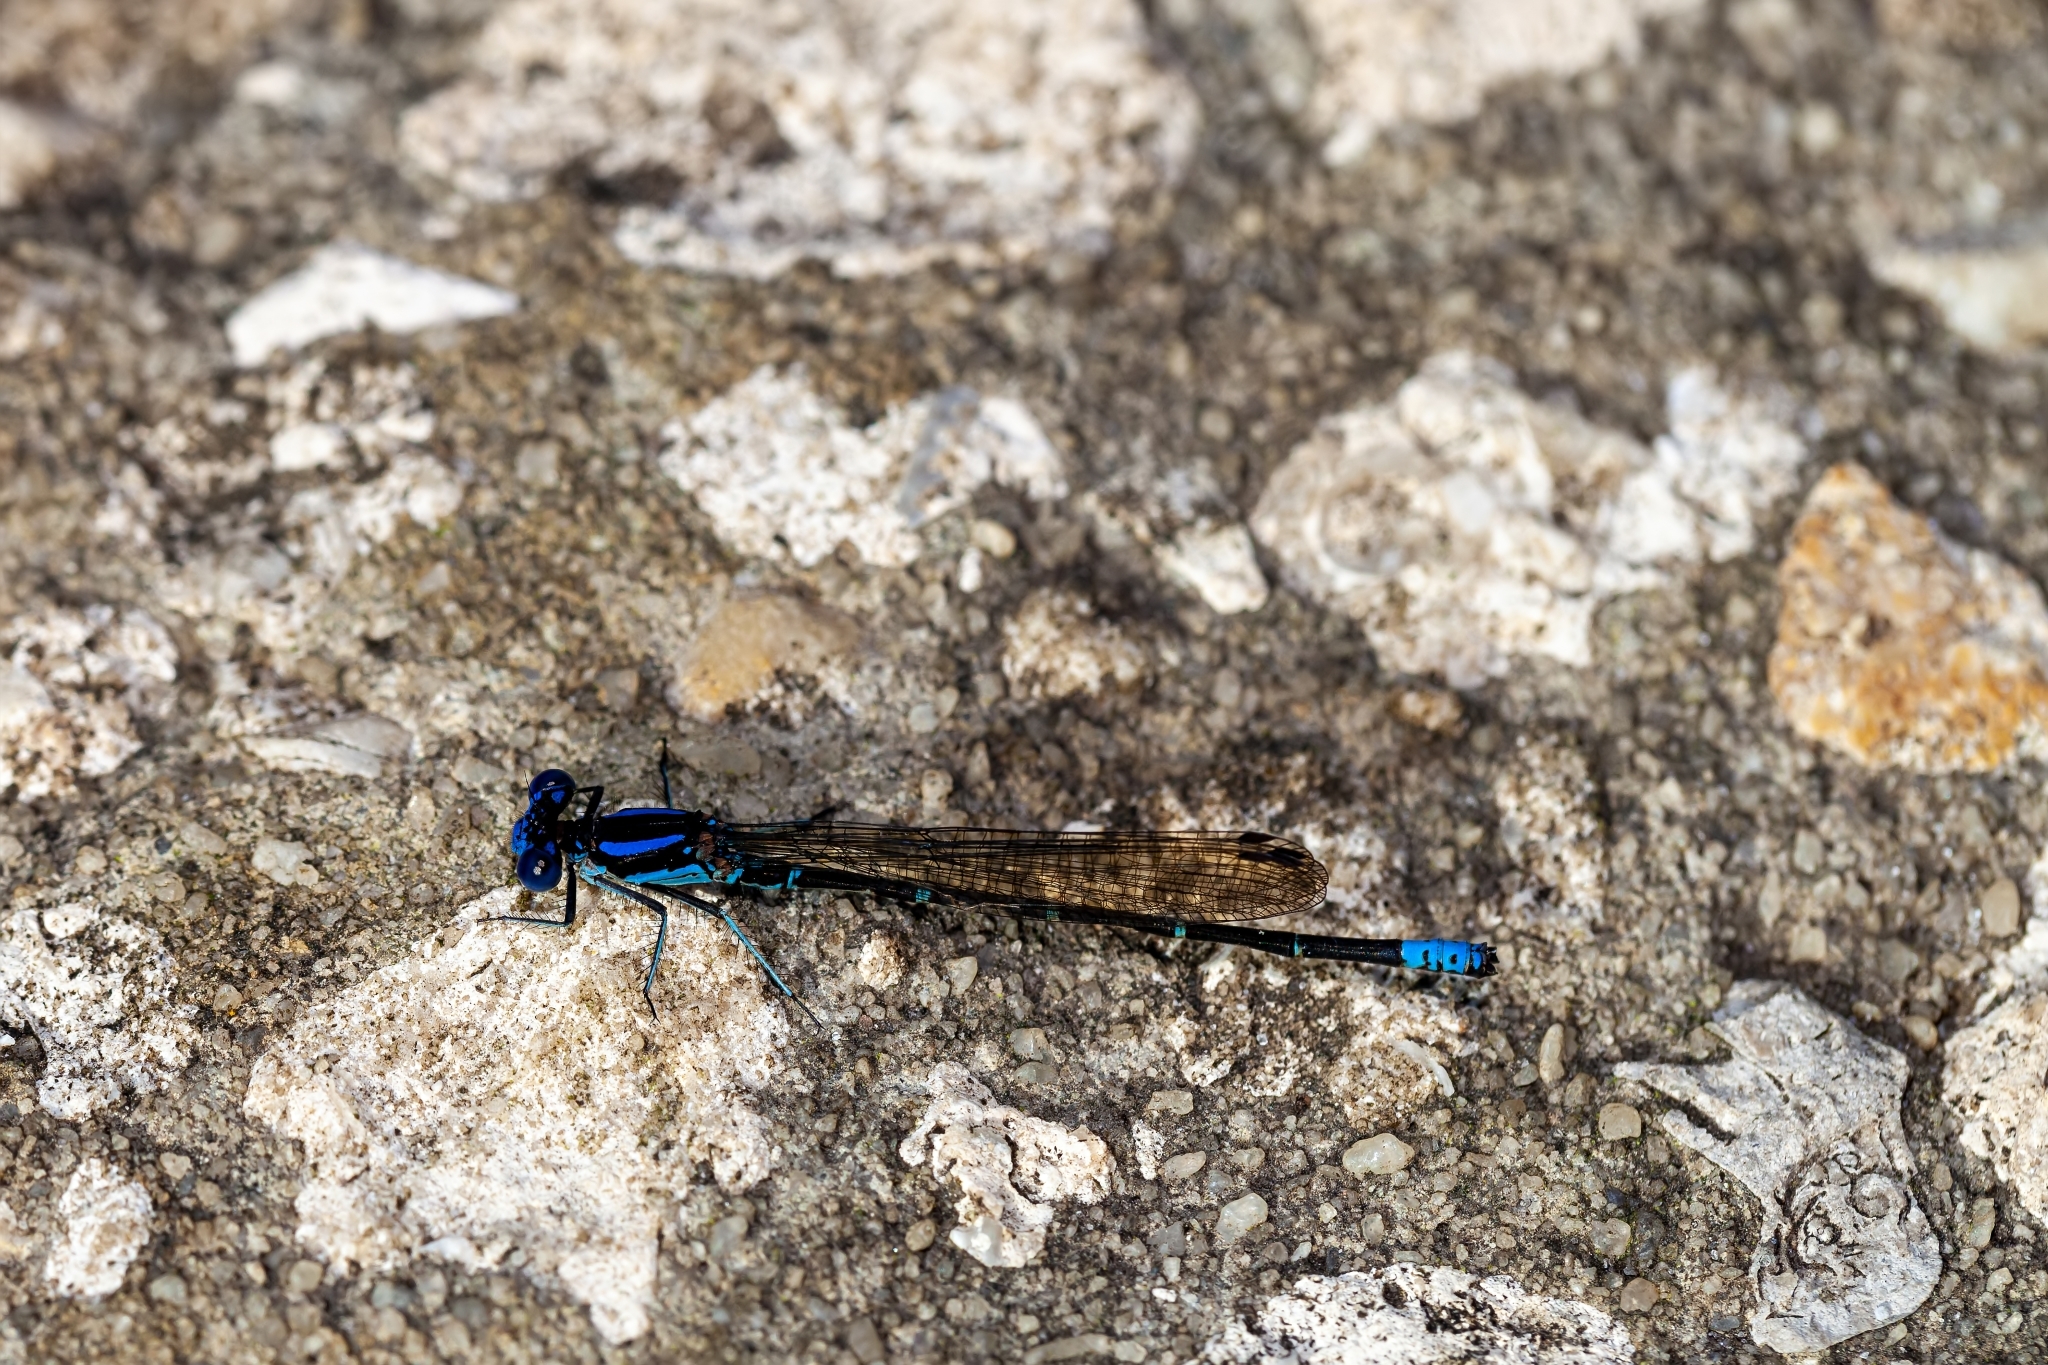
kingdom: Animalia
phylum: Arthropoda
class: Insecta
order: Odonata
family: Coenagrionidae
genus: Argia
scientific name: Argia sedula
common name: Blue-ringed dancer
